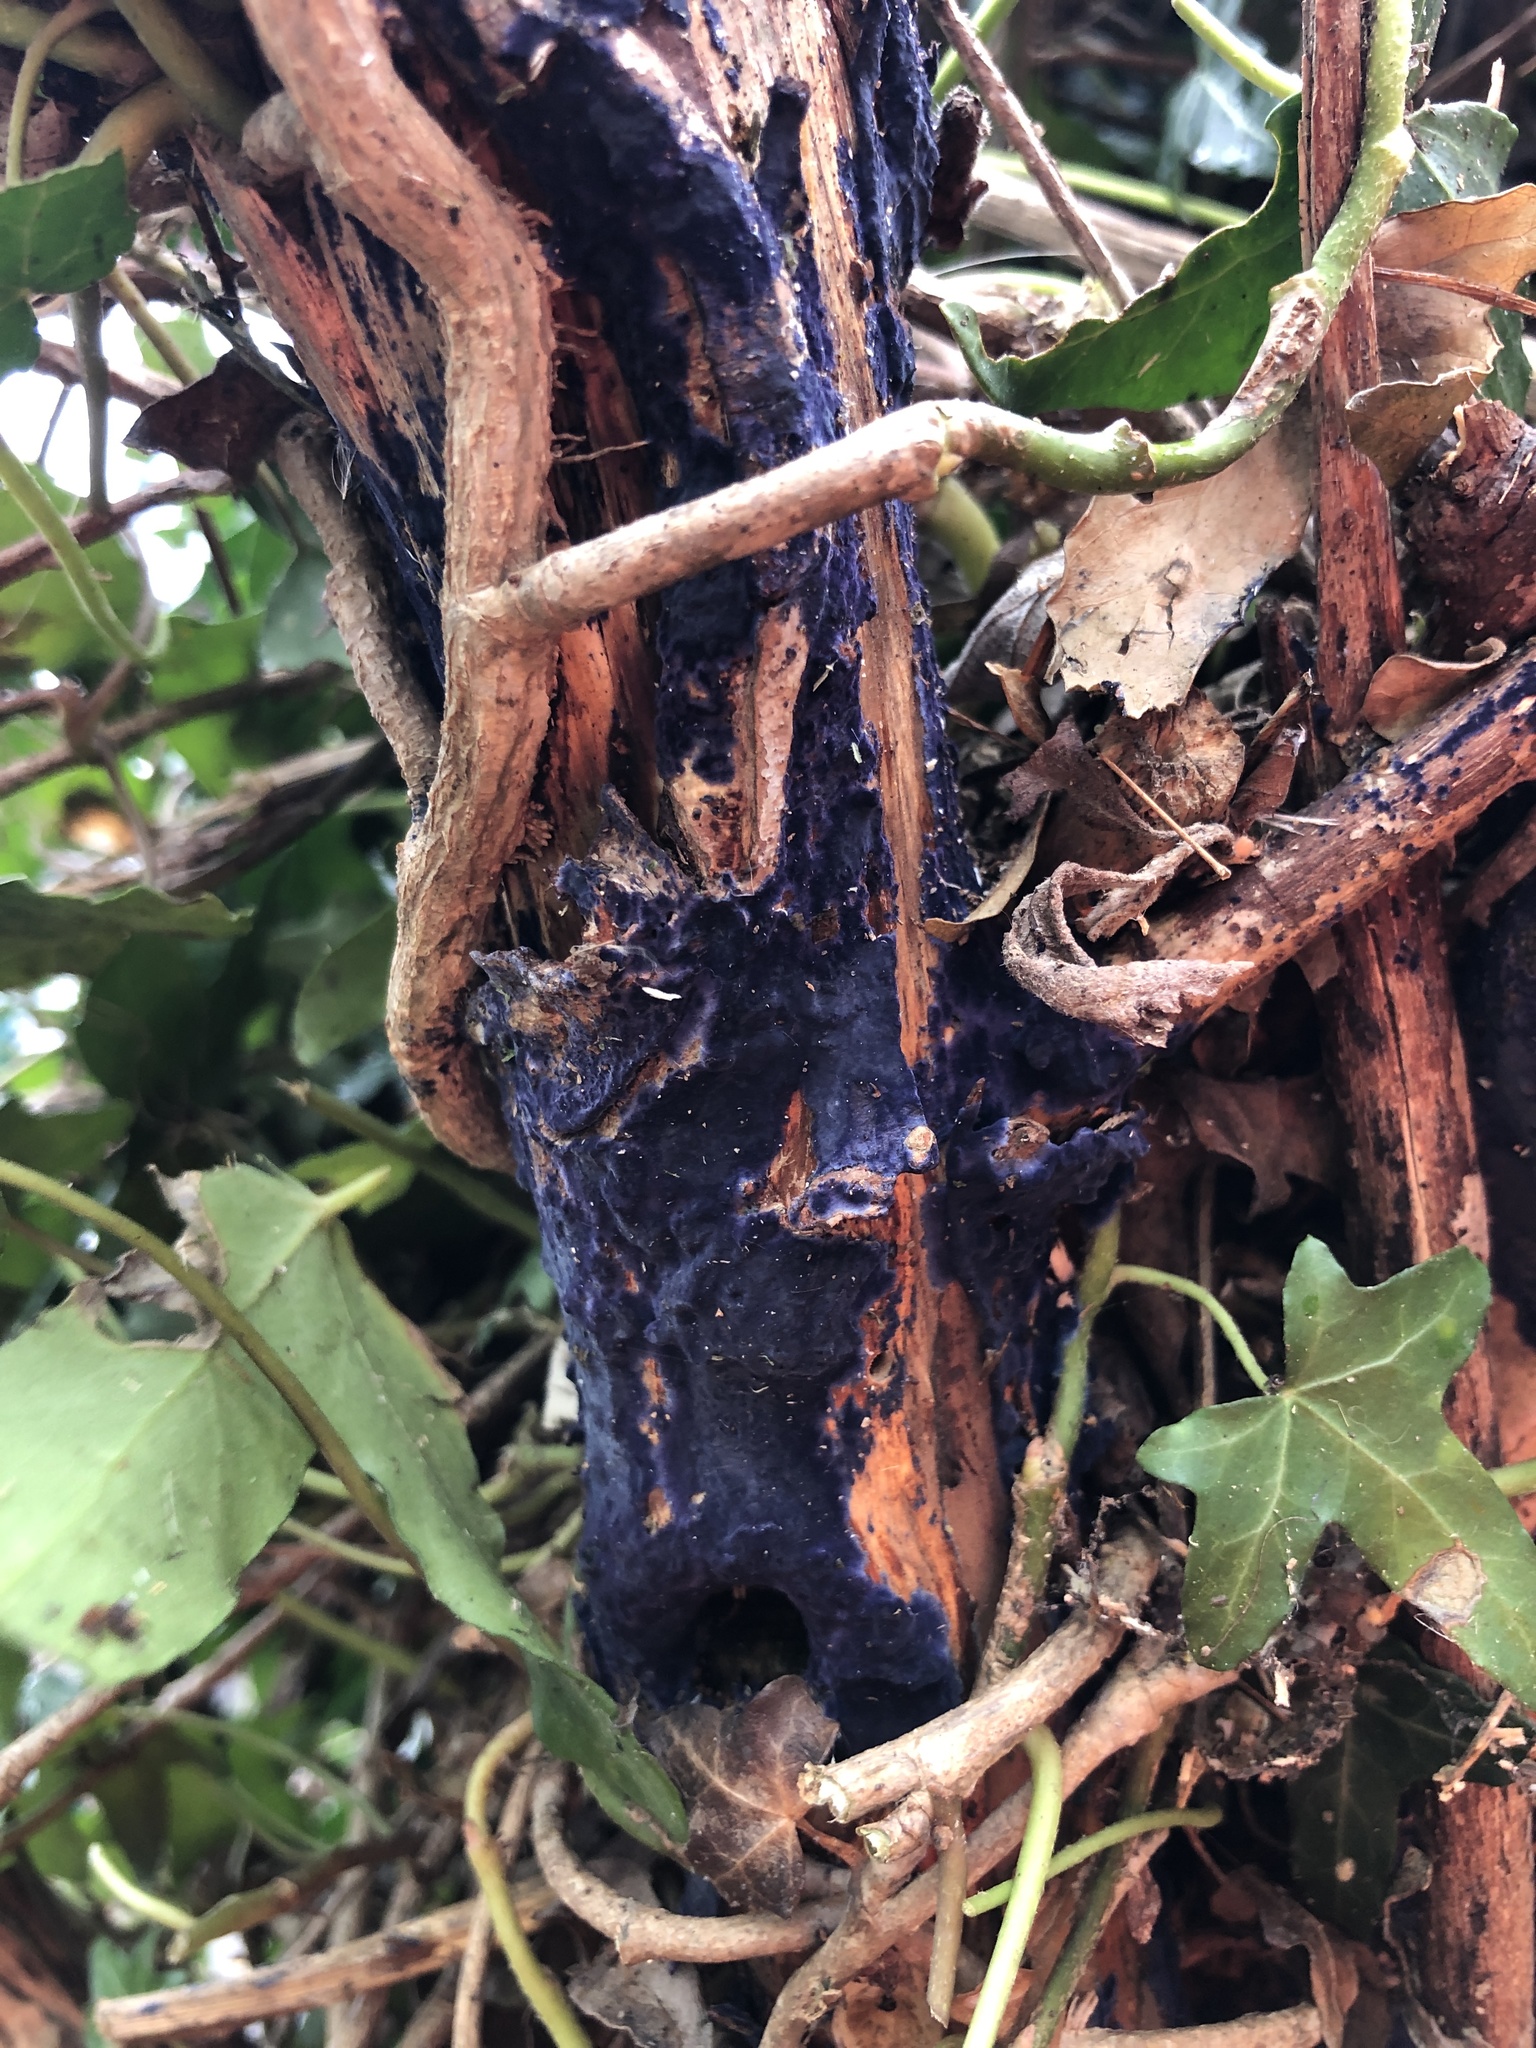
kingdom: Fungi
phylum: Basidiomycota
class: Agaricomycetes
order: Polyporales
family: Phanerochaetaceae
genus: Terana
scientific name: Terana coerulea
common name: Cobalt crust
